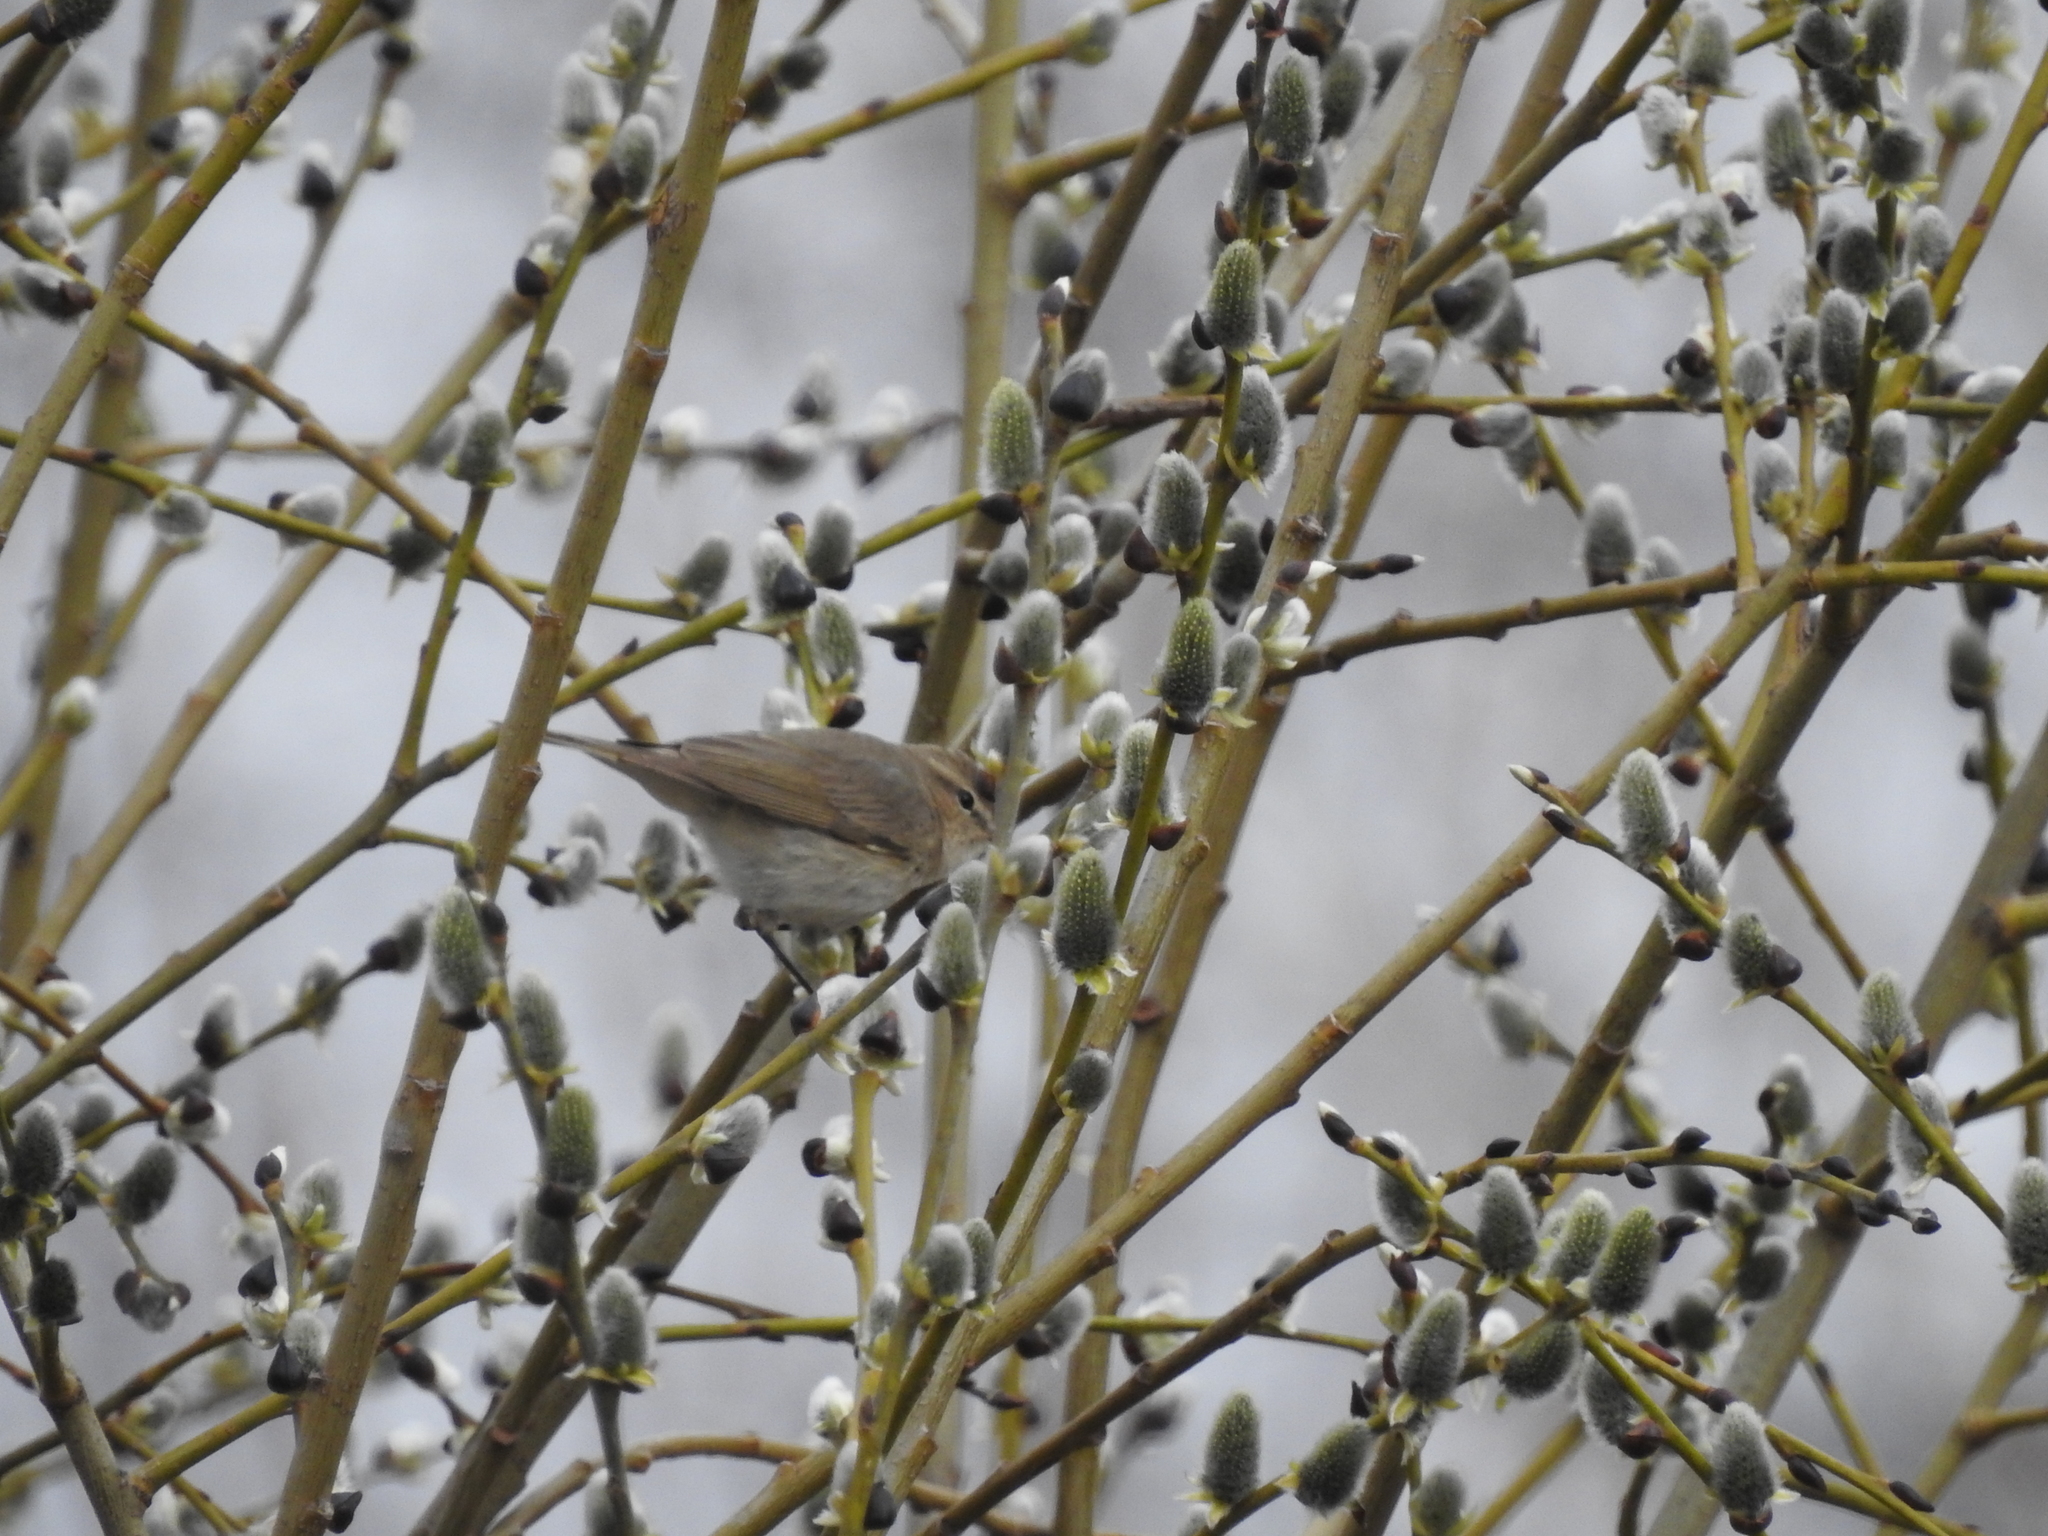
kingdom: Animalia
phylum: Chordata
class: Aves
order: Passeriformes
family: Phylloscopidae
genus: Phylloscopus
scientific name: Phylloscopus collybita
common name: Common chiffchaff
